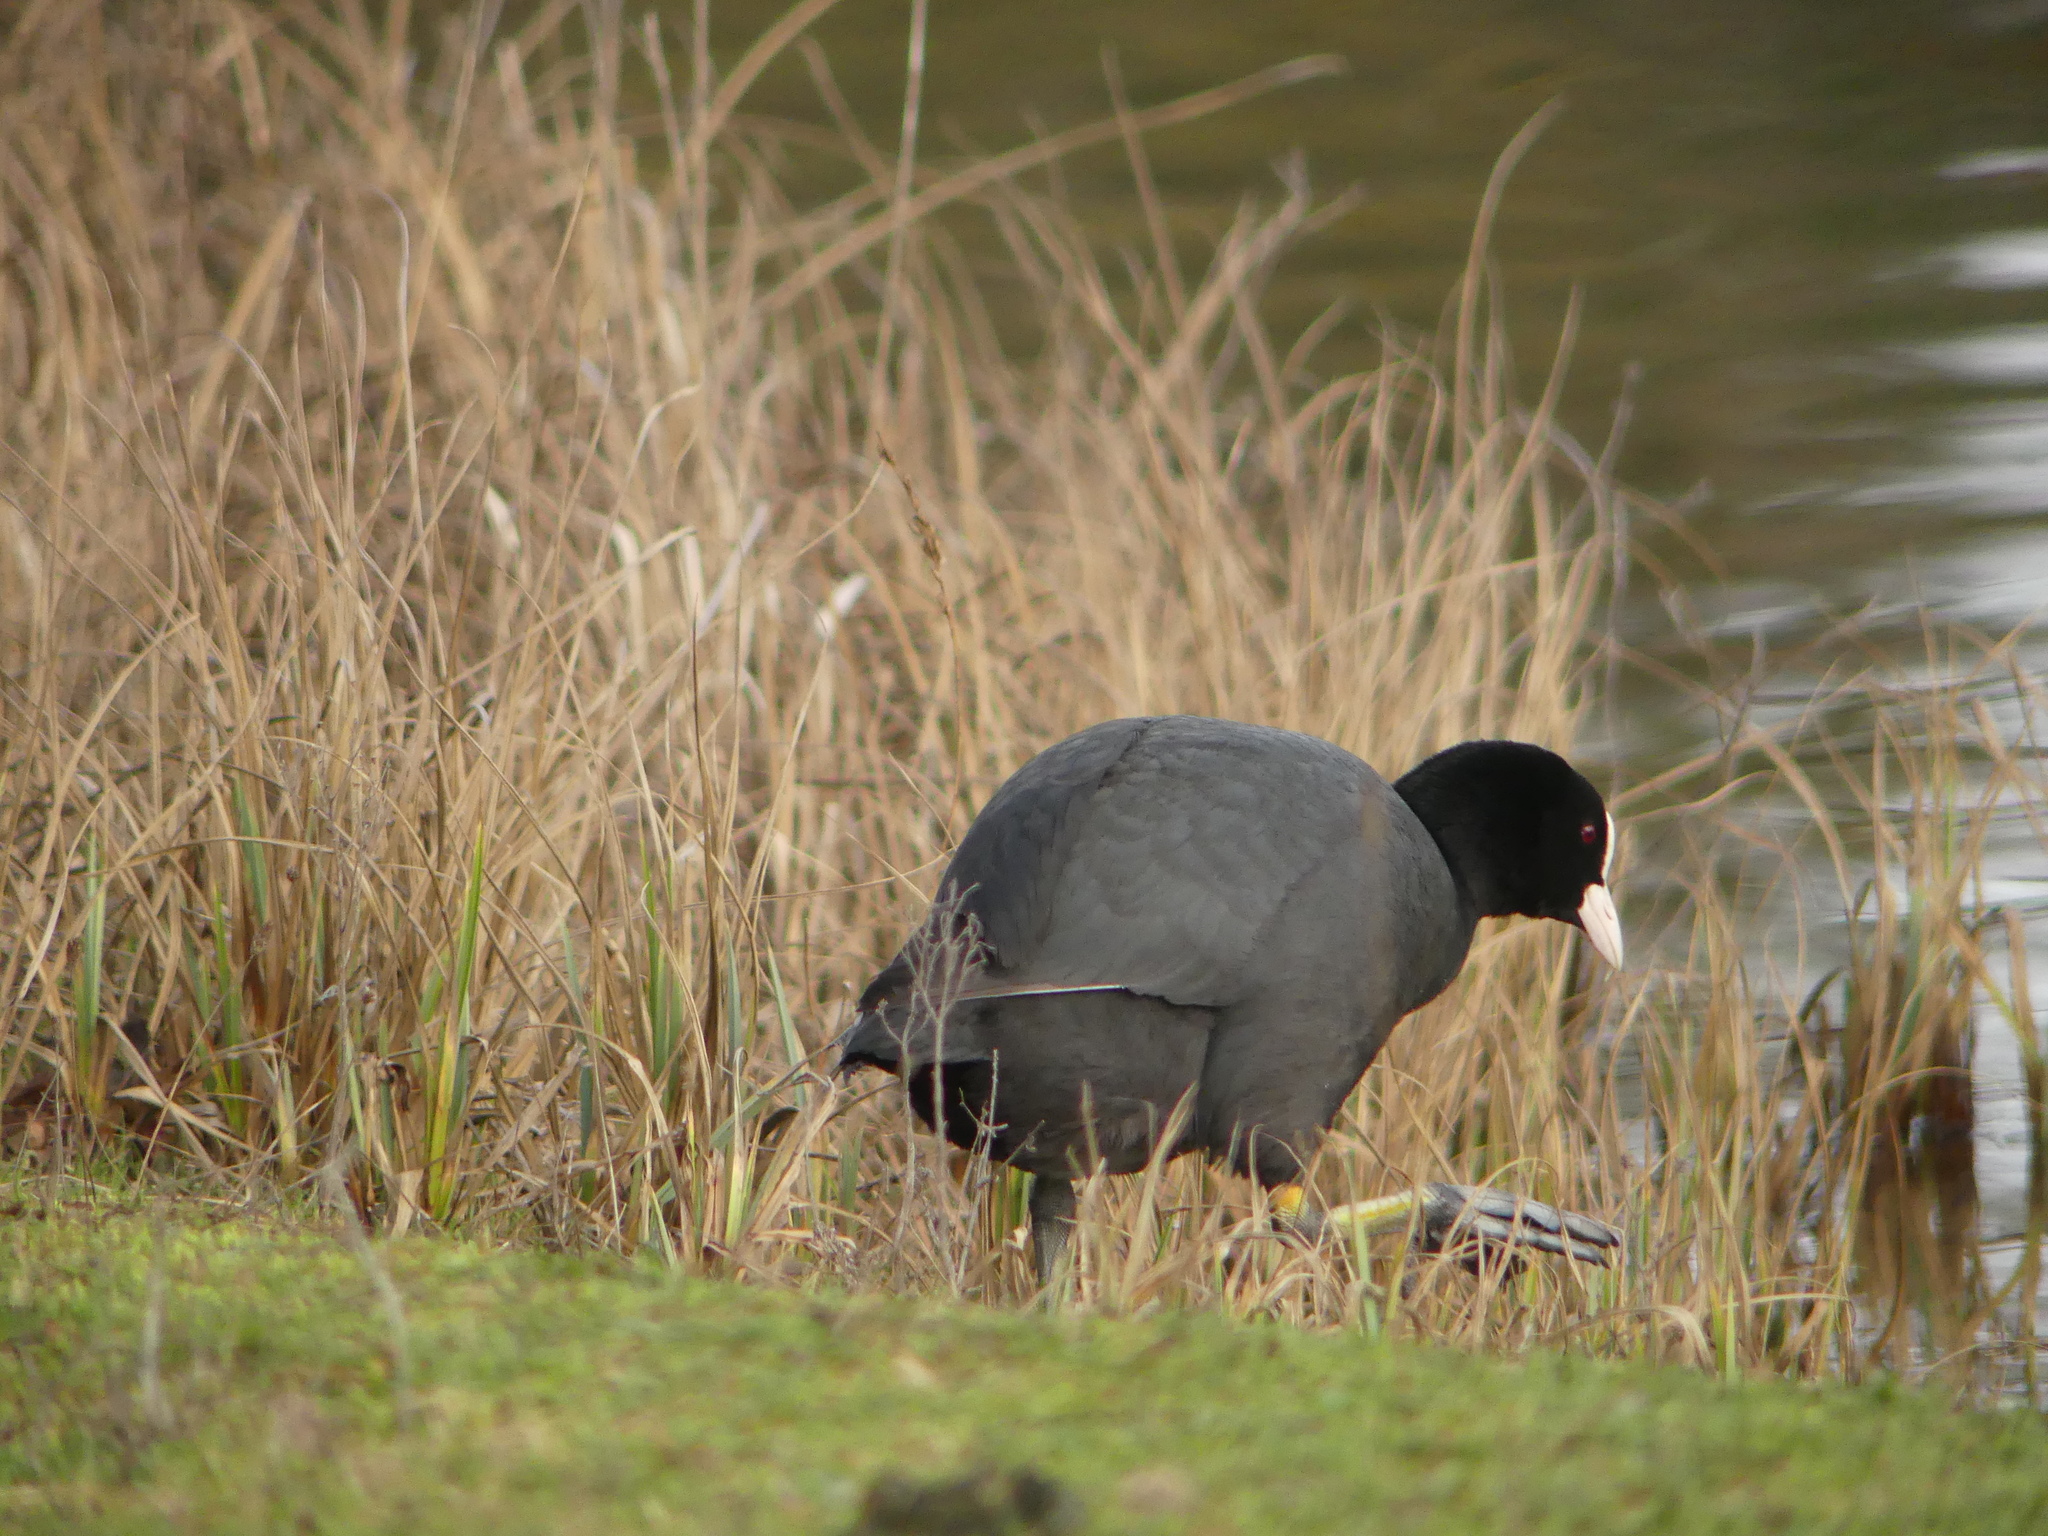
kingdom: Animalia
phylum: Chordata
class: Aves
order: Gruiformes
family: Rallidae
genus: Fulica
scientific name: Fulica atra
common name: Eurasian coot
